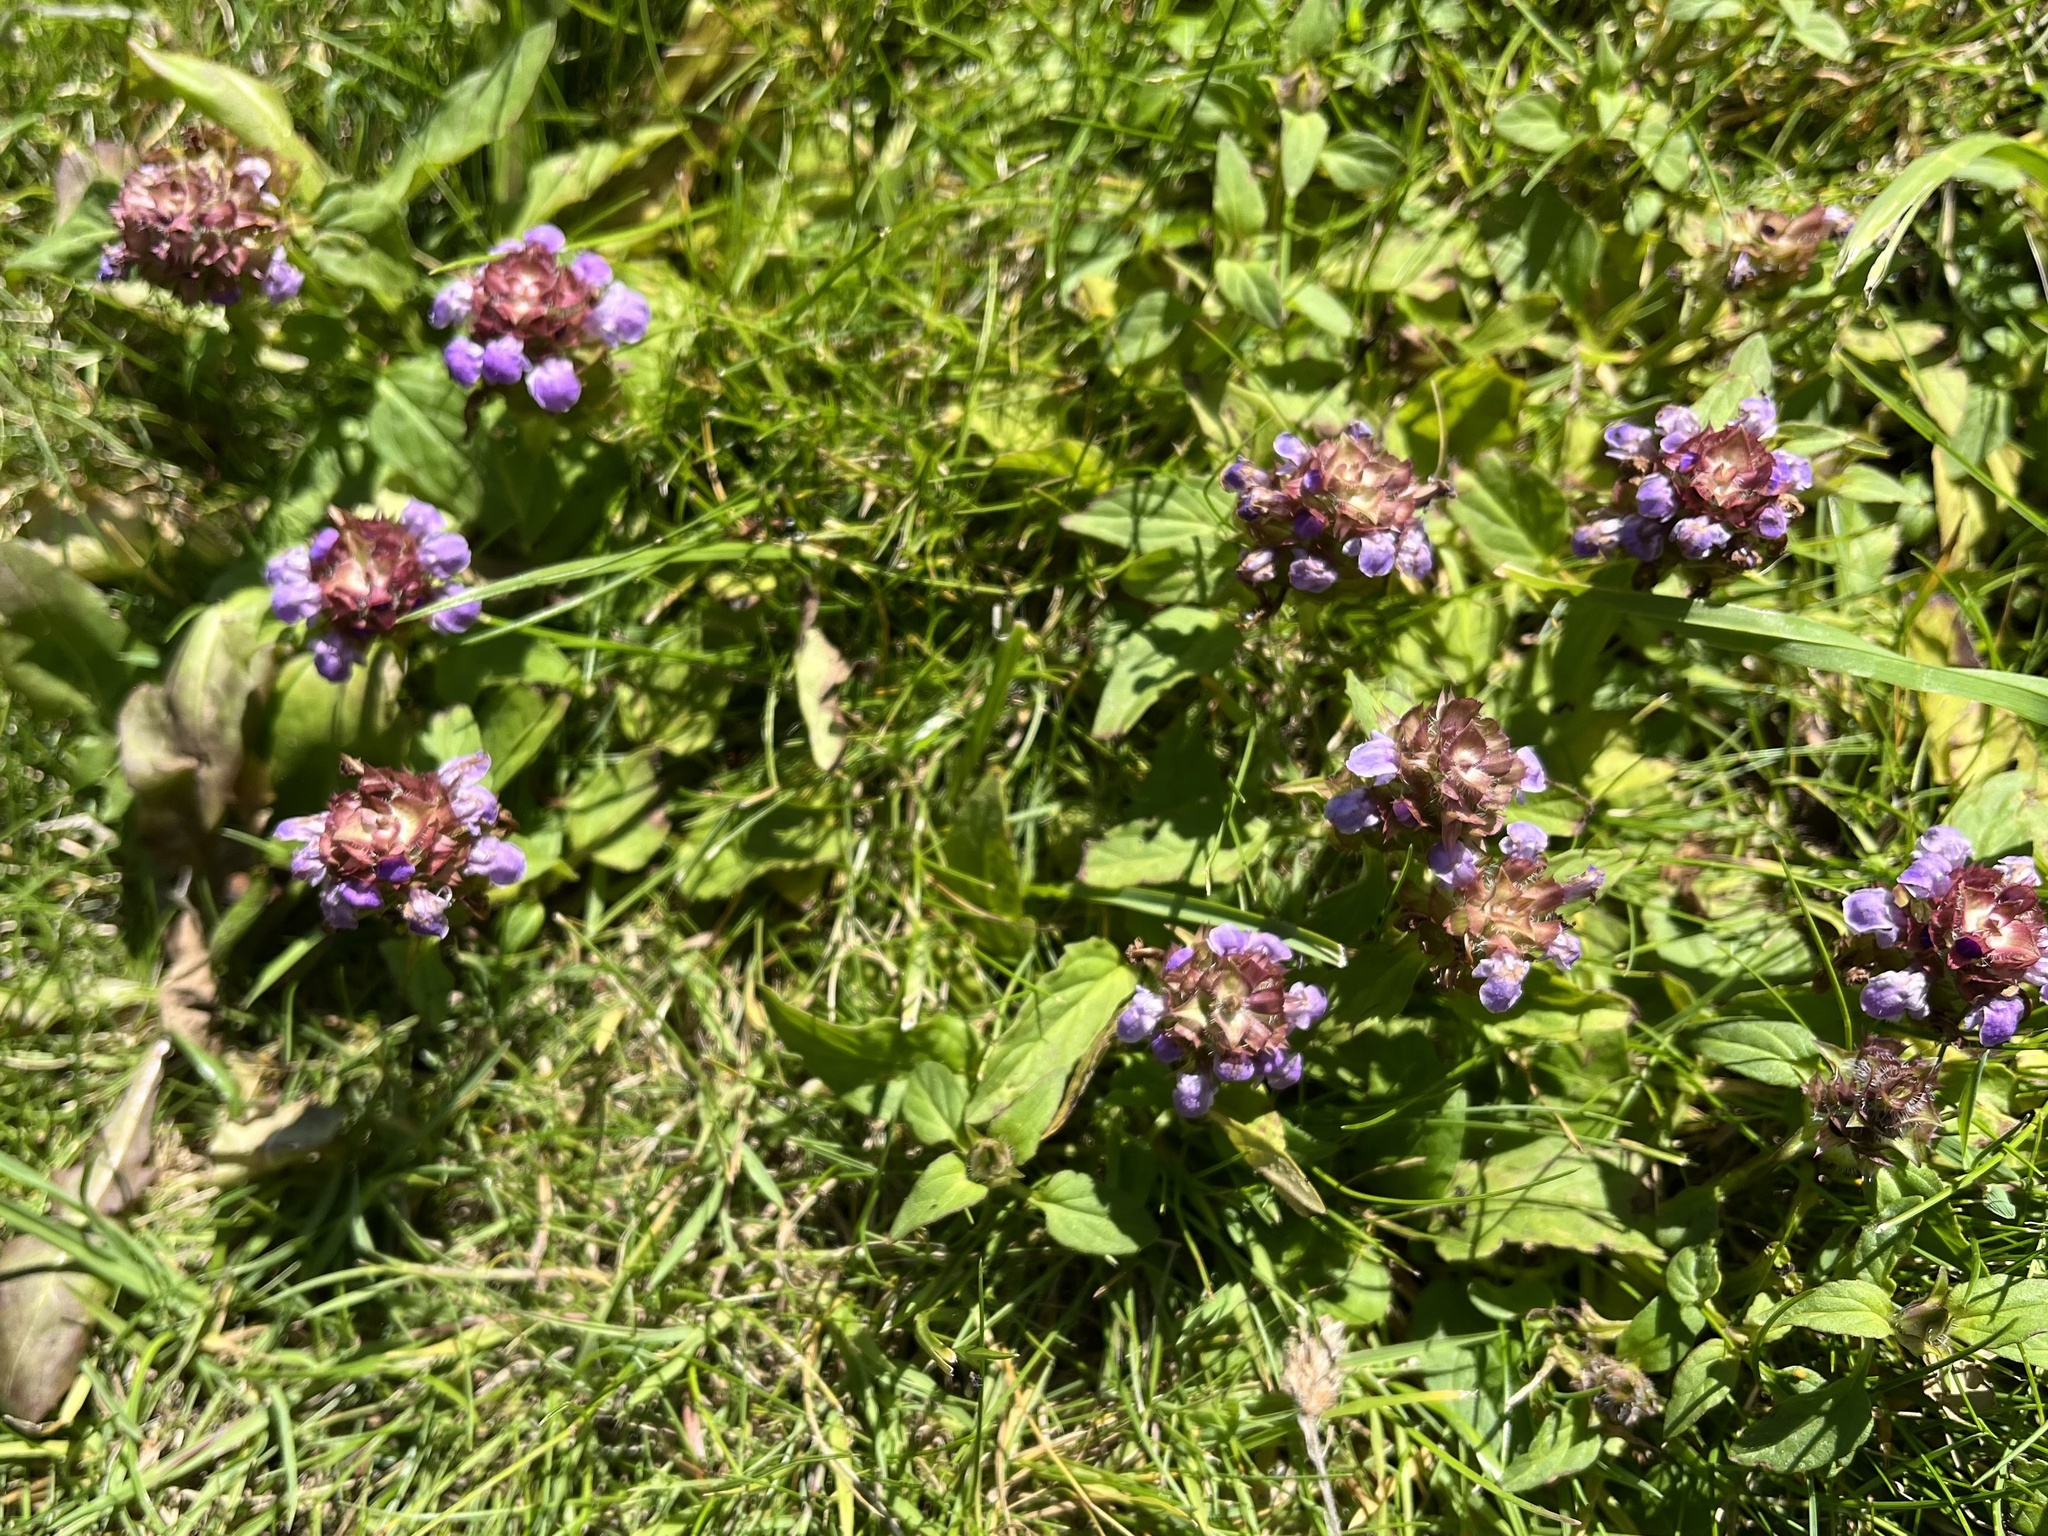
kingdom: Plantae
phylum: Tracheophyta
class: Magnoliopsida
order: Lamiales
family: Lamiaceae
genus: Prunella
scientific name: Prunella vulgaris
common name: Heal-all
